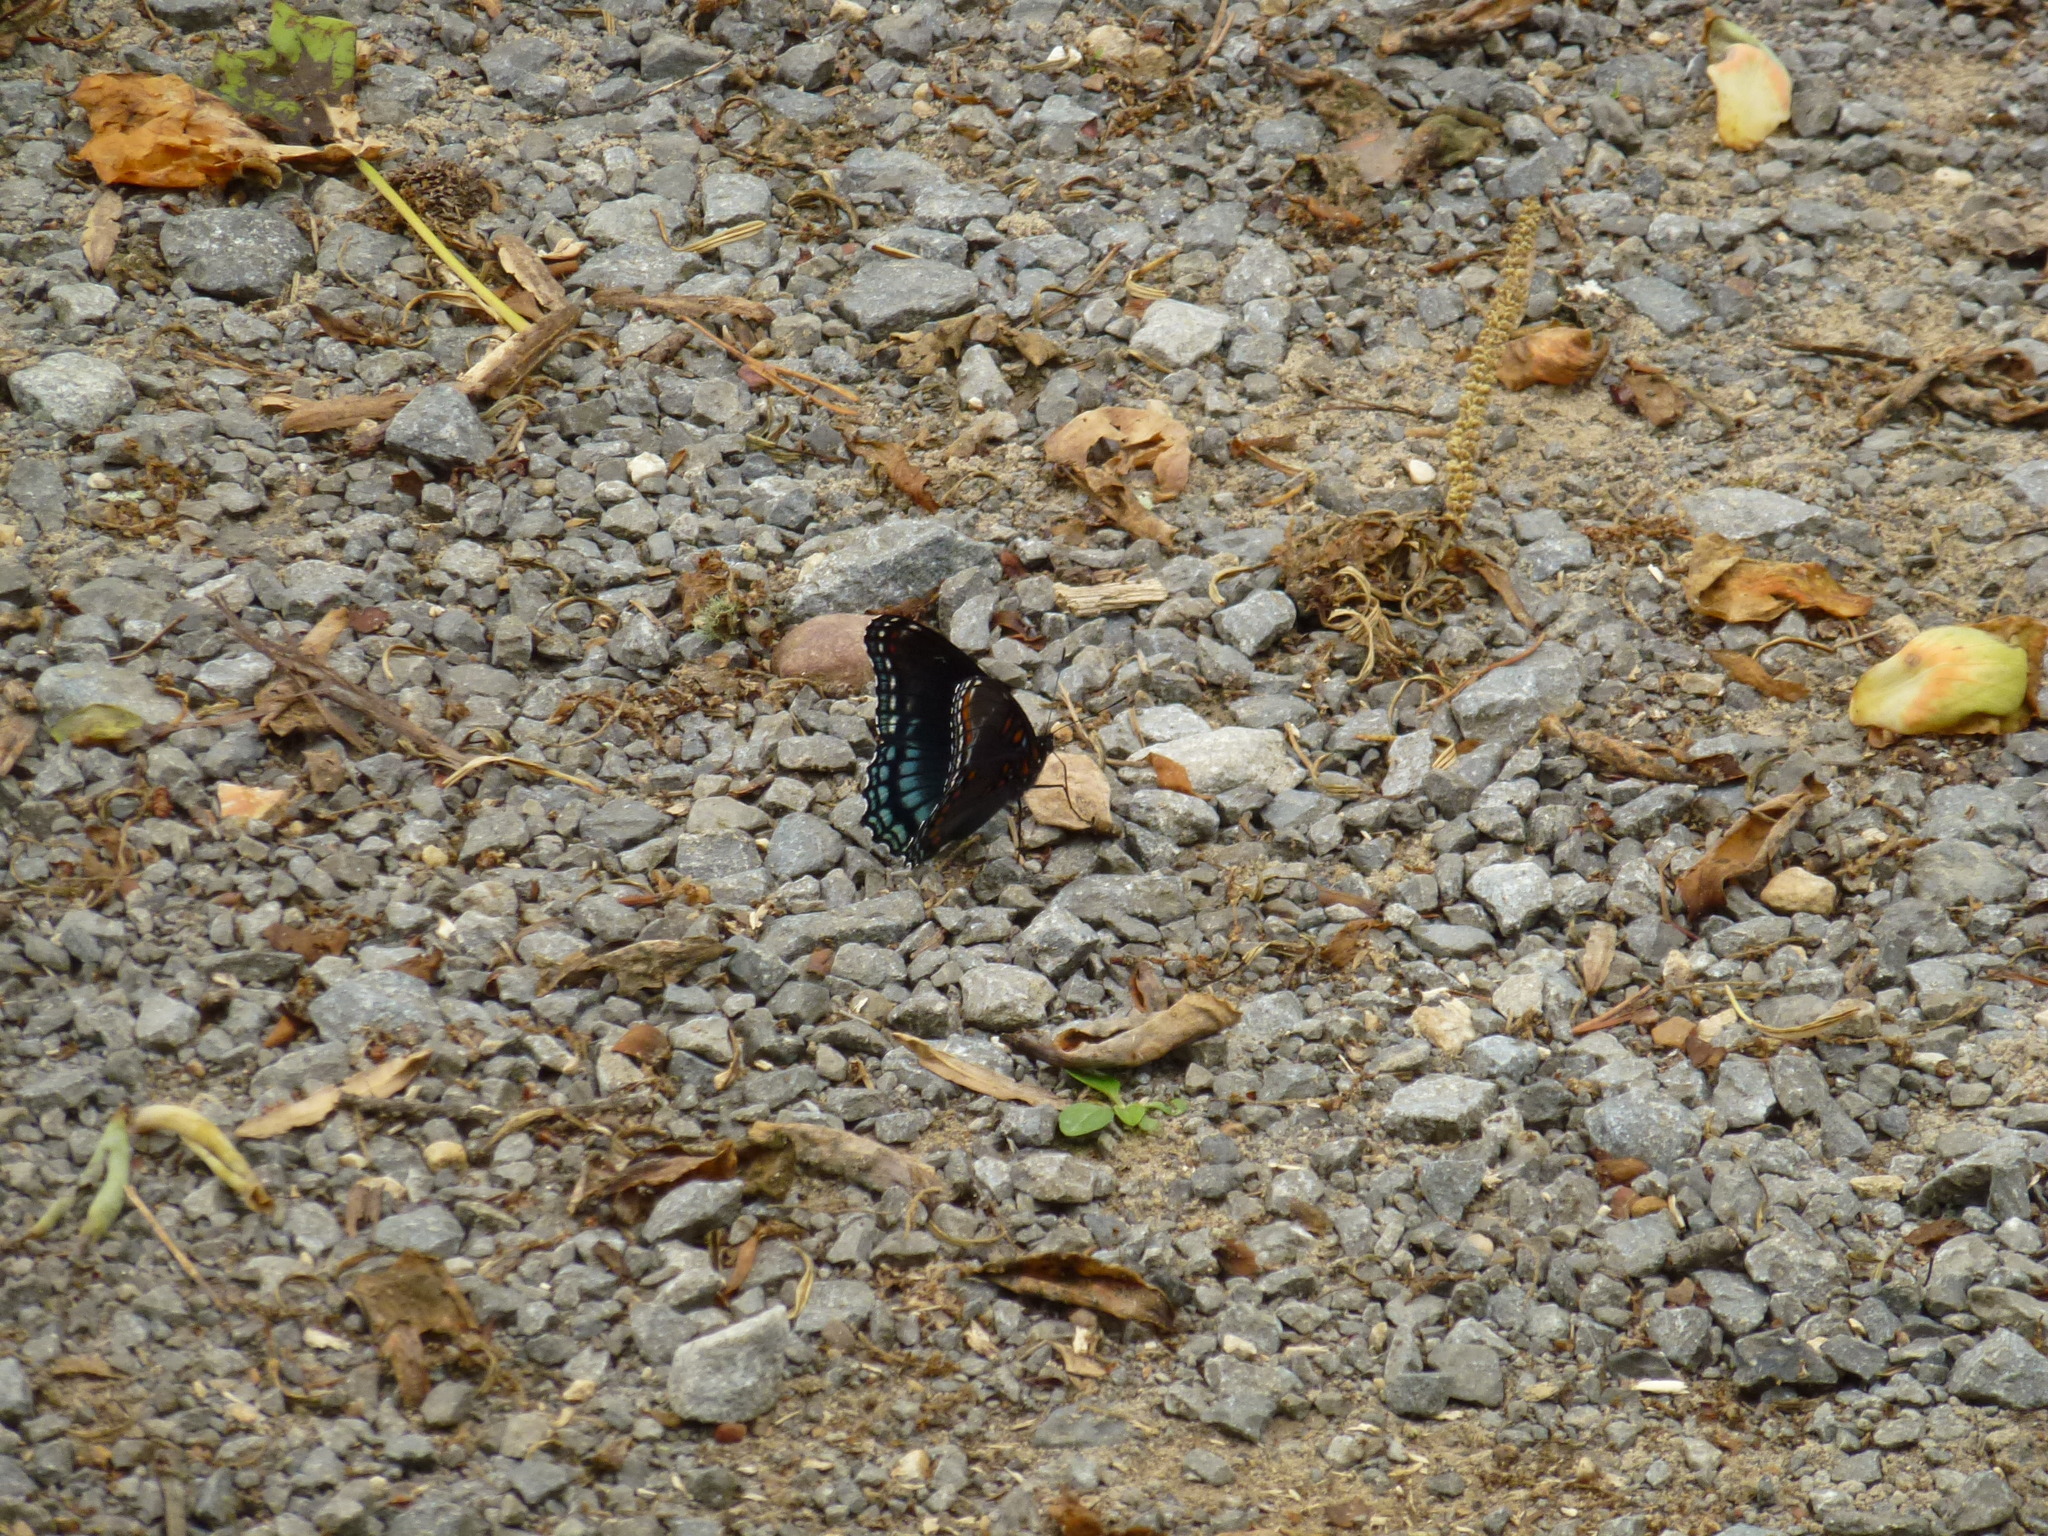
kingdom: Animalia
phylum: Arthropoda
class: Insecta
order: Lepidoptera
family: Nymphalidae
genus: Limenitis
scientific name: Limenitis astyanax
